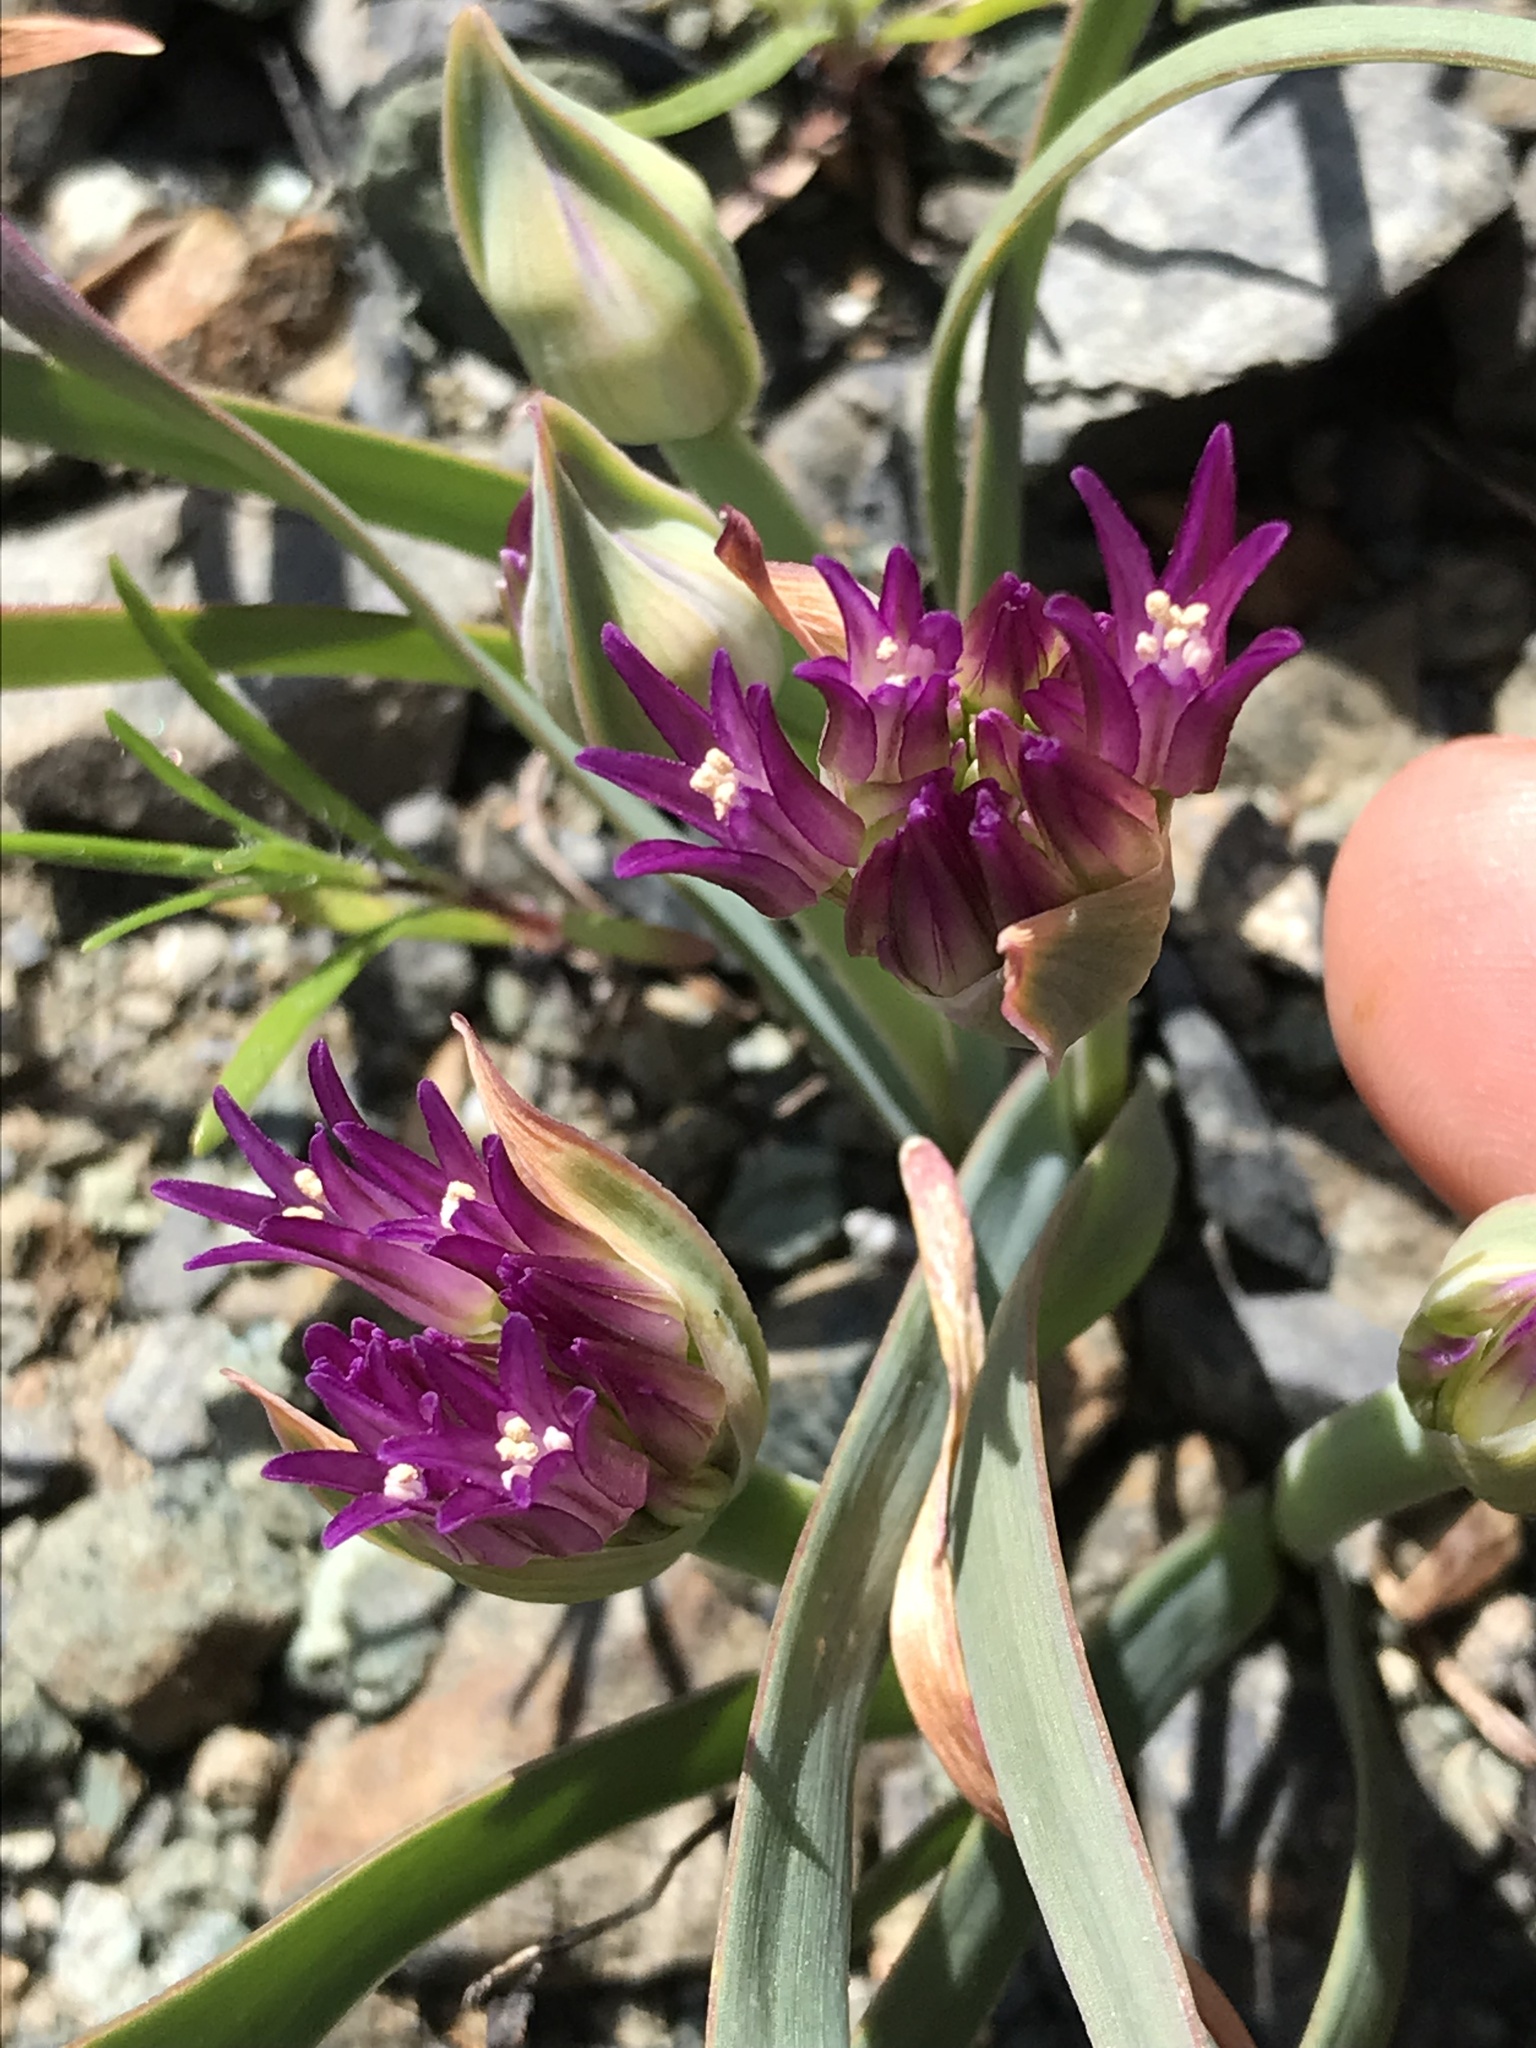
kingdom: Plantae
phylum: Tracheophyta
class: Liliopsida
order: Asparagales
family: Amaryllidaceae
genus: Allium
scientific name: Allium falcifolium
